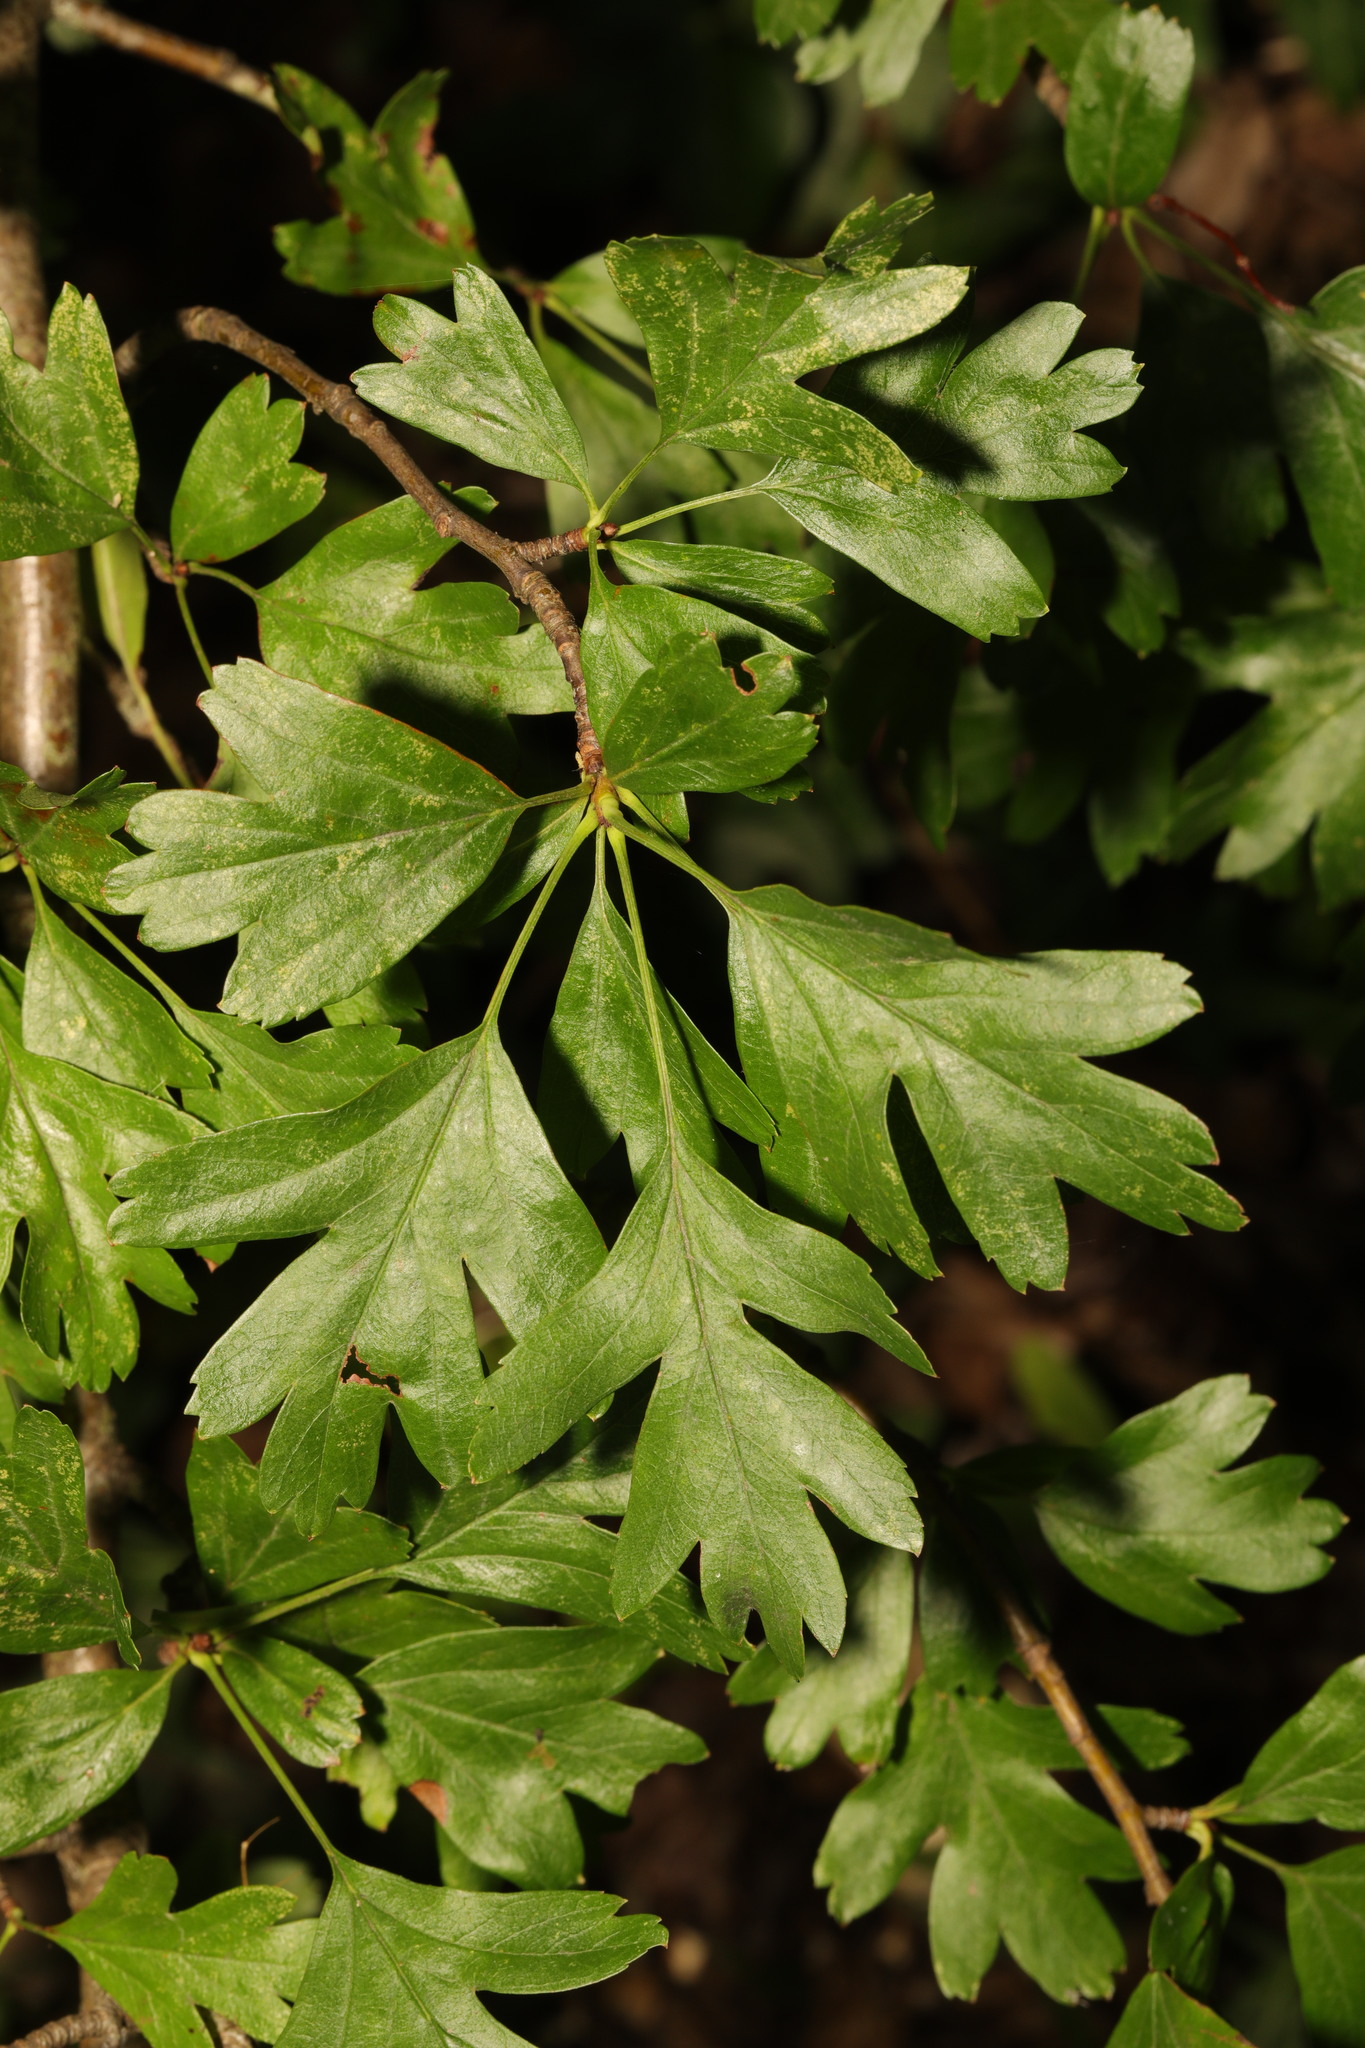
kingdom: Plantae
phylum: Tracheophyta
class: Magnoliopsida
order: Rosales
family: Rosaceae
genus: Crataegus
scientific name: Crataegus monogyna
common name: Hawthorn
